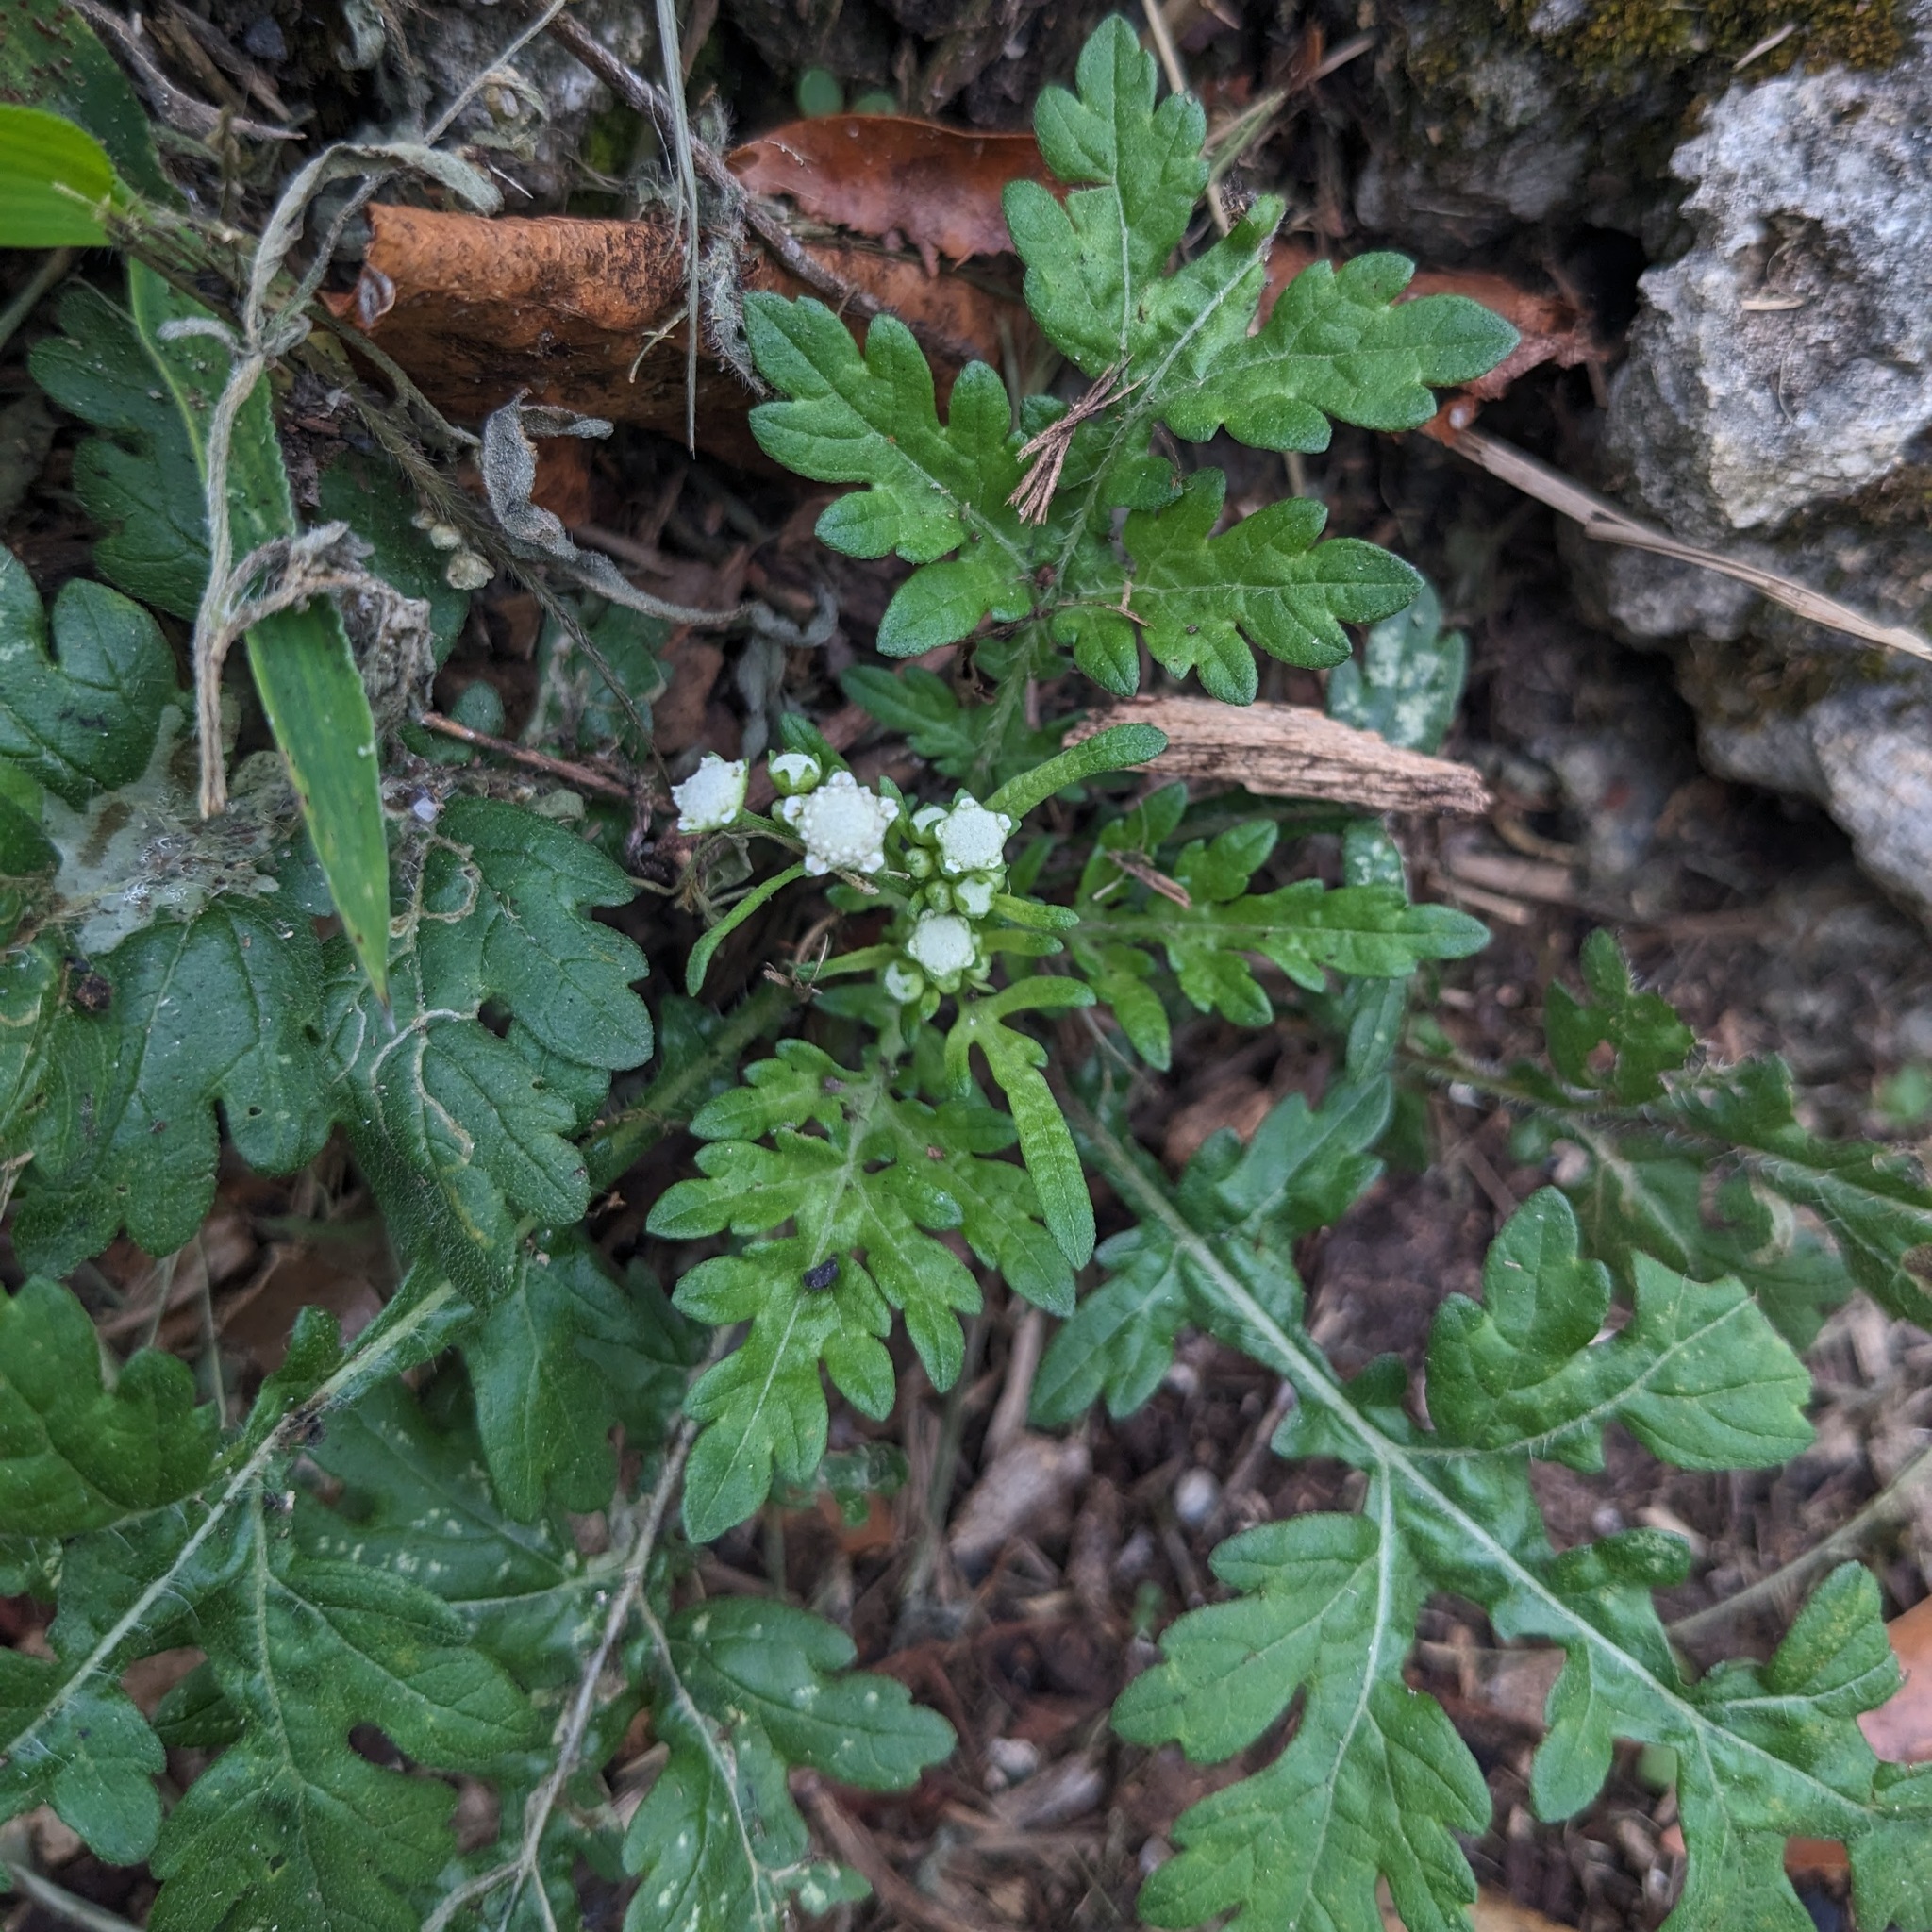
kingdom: Plantae
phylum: Tracheophyta
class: Magnoliopsida
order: Asterales
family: Asteraceae
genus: Parthenium
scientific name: Parthenium hysterophorus
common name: Santa maria feverfew
